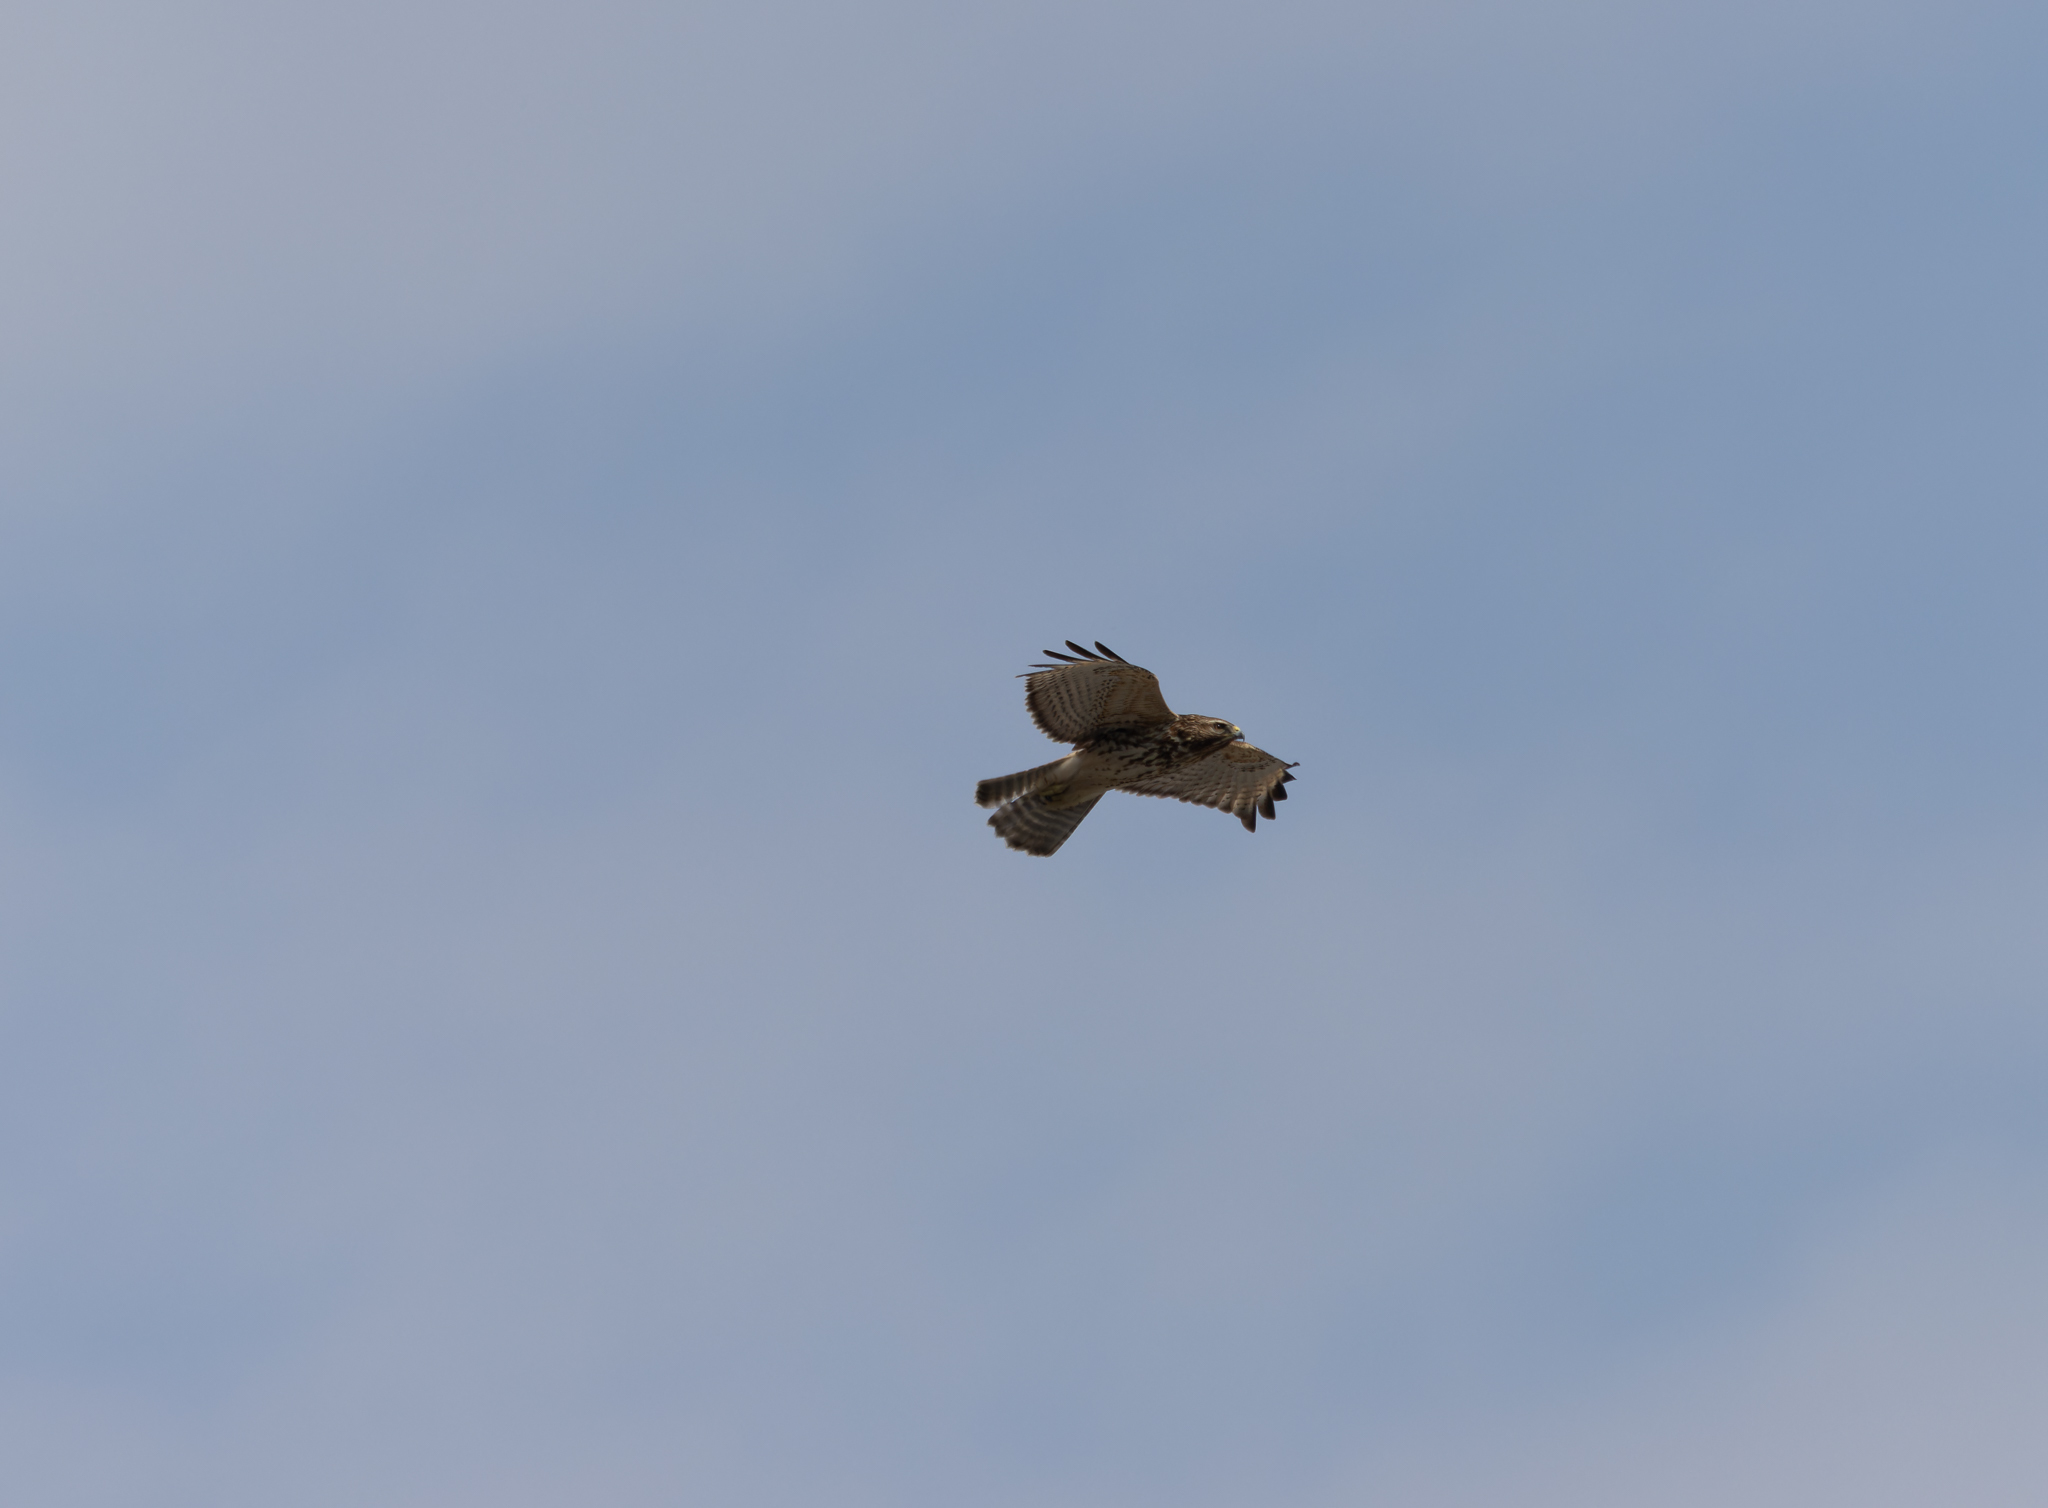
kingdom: Animalia
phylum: Chordata
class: Aves
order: Accipitriformes
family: Accipitridae
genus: Buteo
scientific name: Buteo lineatus
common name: Red-shouldered hawk
